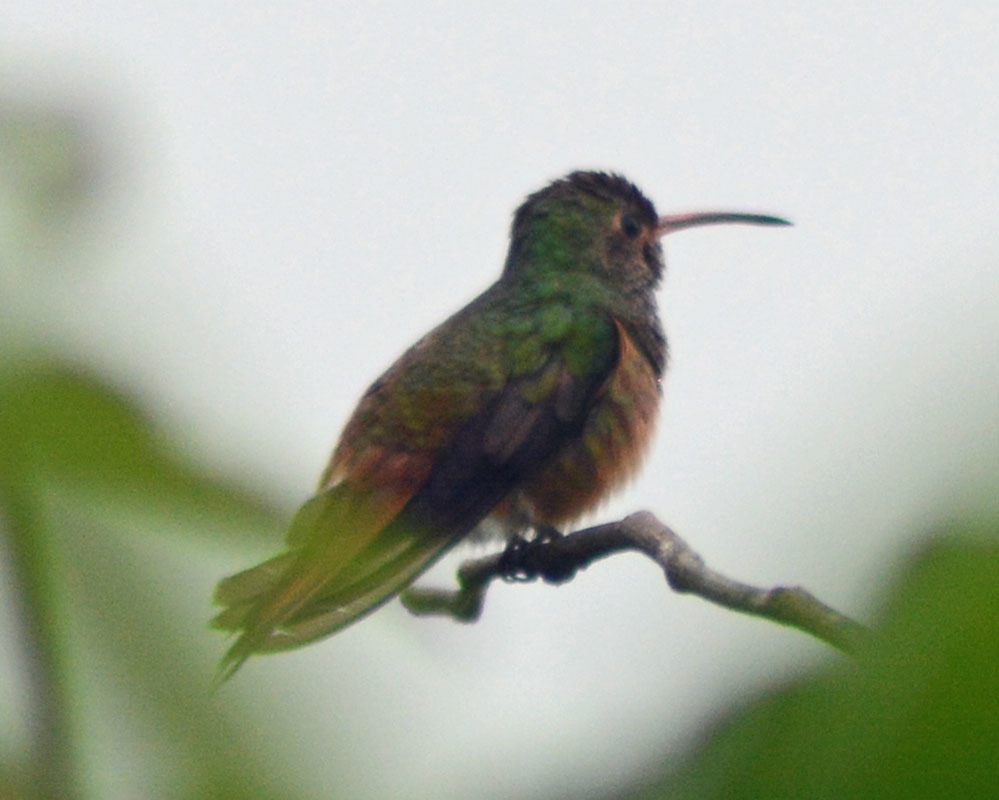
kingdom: Animalia
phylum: Chordata
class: Aves
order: Apodiformes
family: Trochilidae
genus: Amazilia
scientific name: Amazilia yucatanensis
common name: Buff-bellied hummingbird
